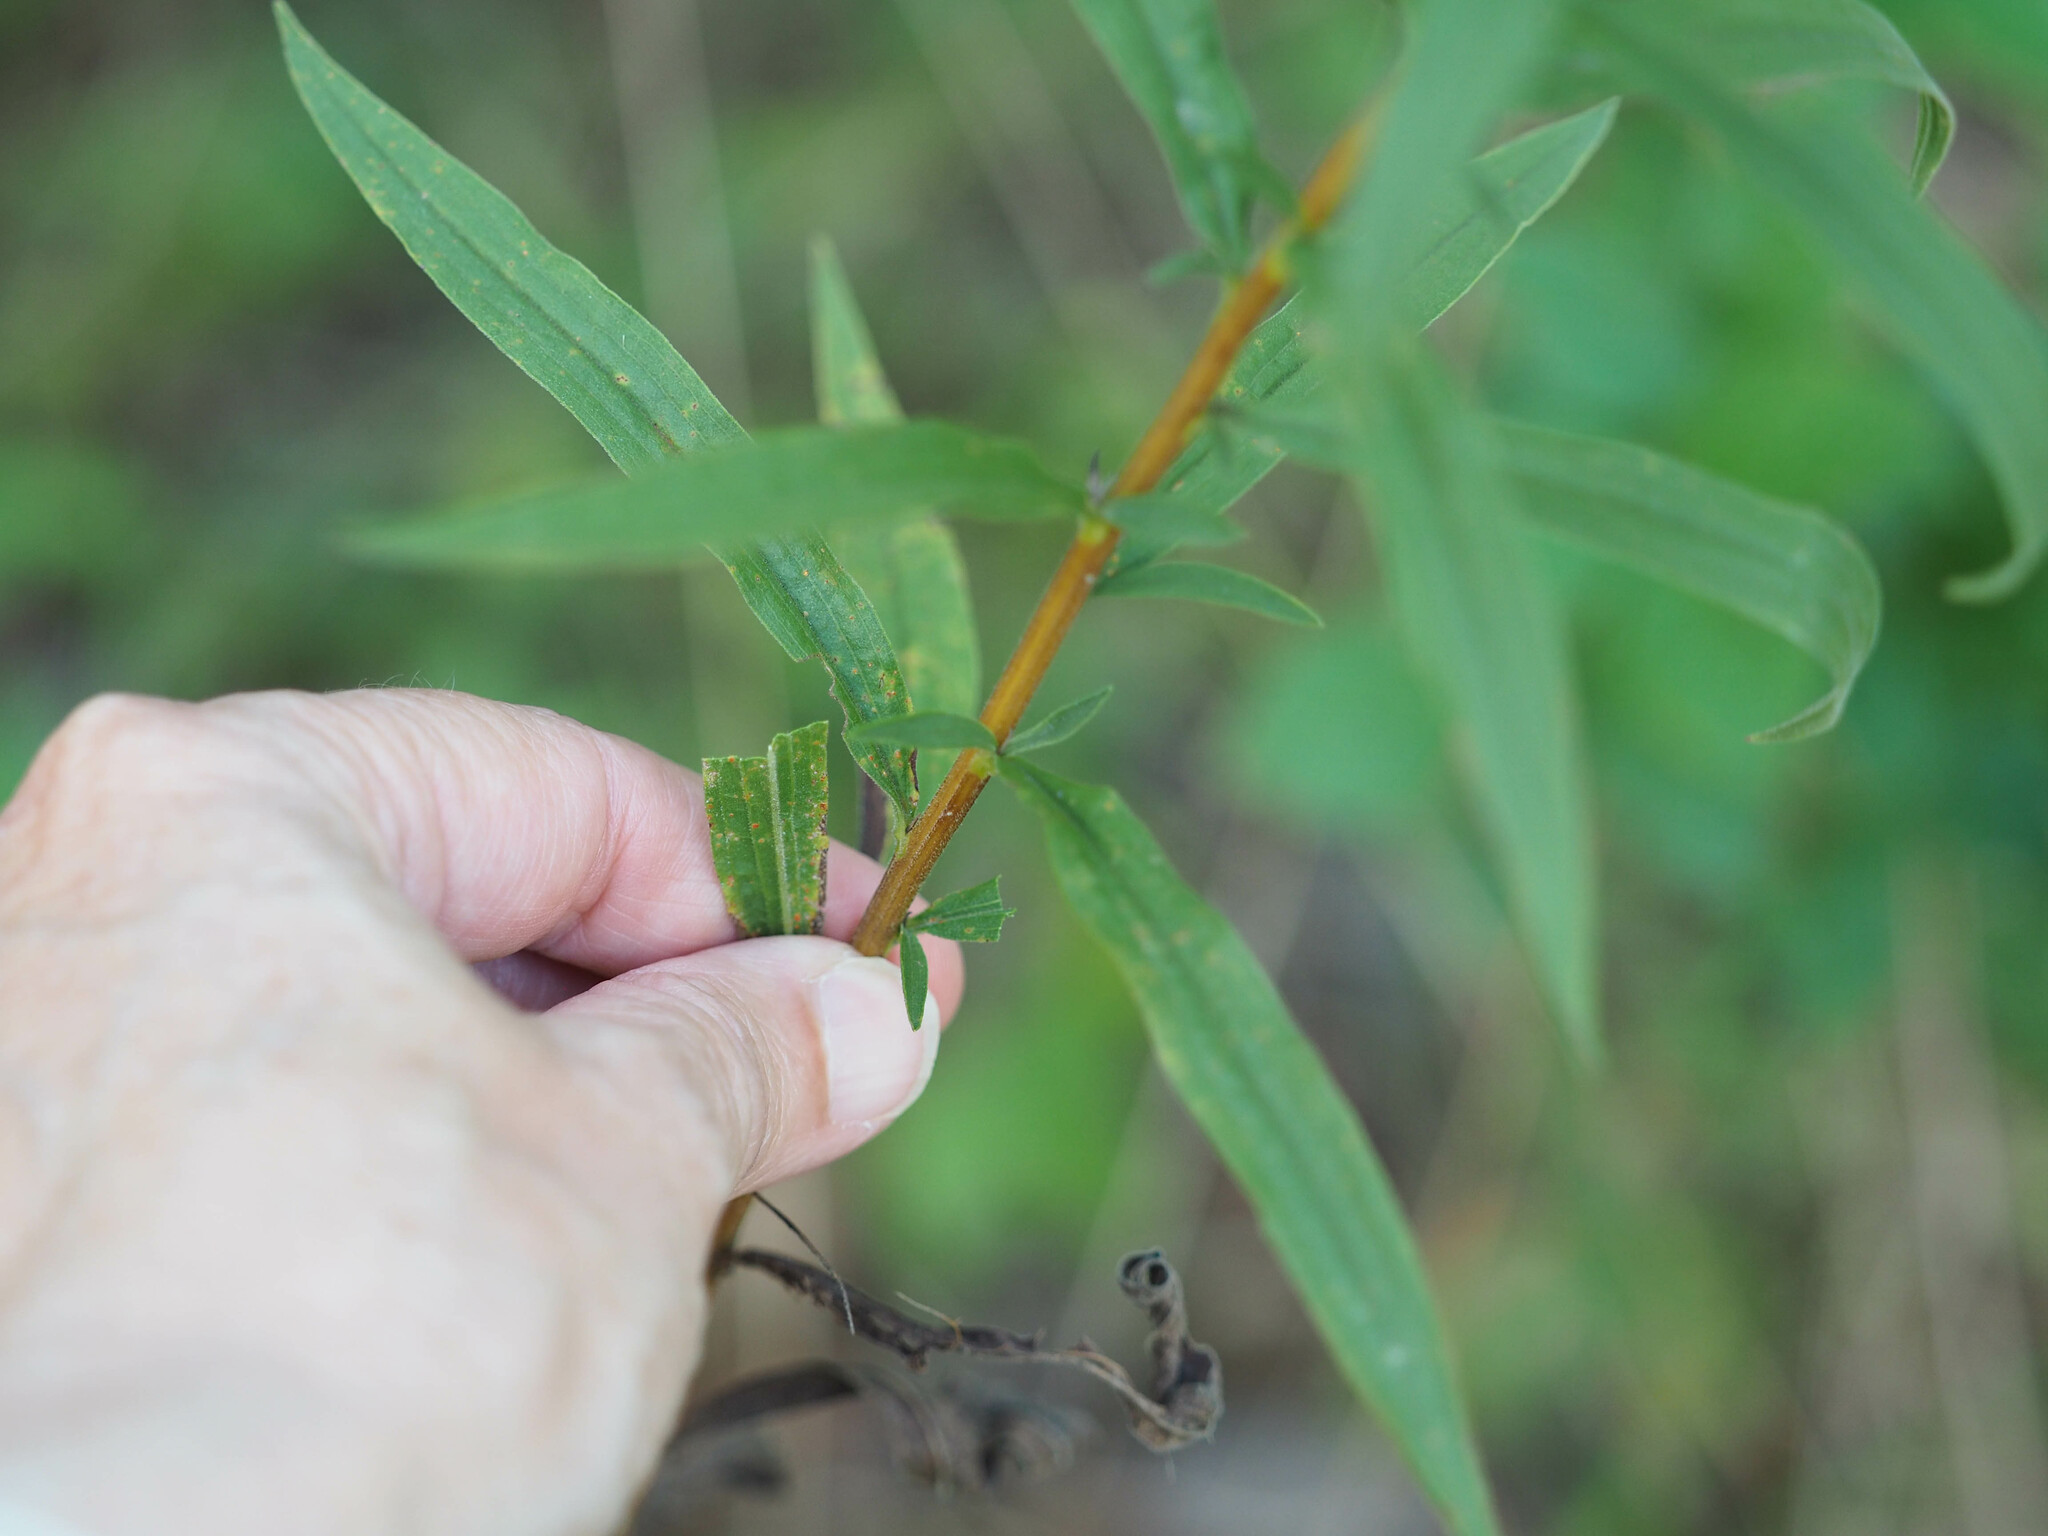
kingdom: Plantae
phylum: Tracheophyta
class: Magnoliopsida
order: Asterales
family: Asteraceae
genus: Solidago
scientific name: Solidago altissima
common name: Late goldenrod
